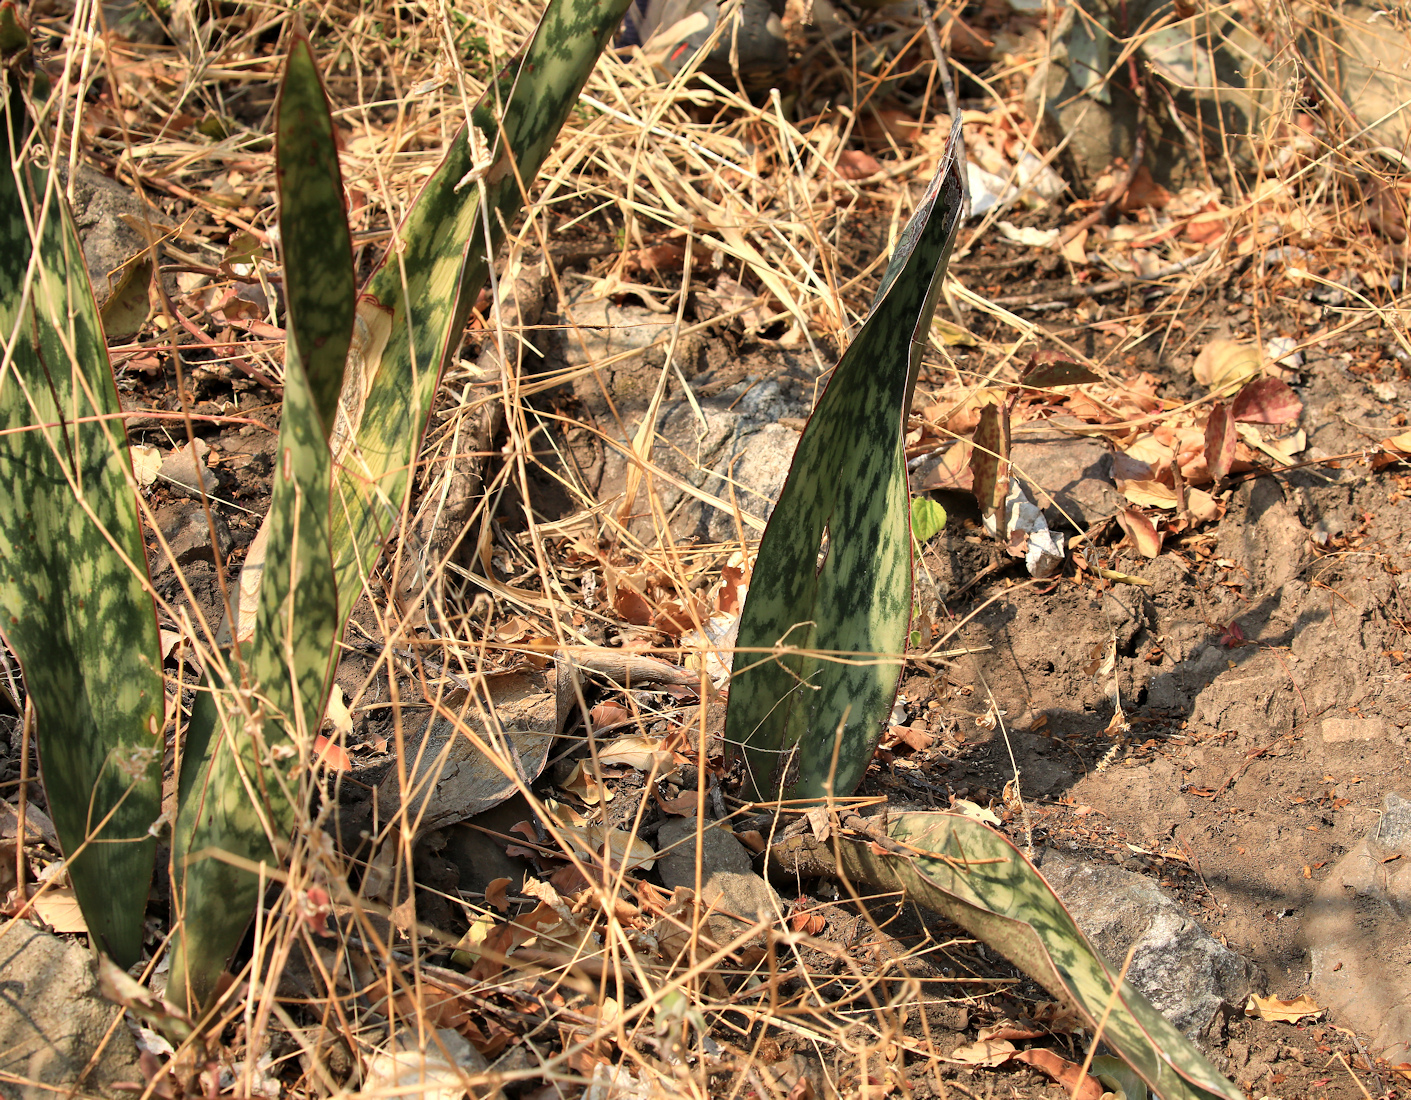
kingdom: Plantae
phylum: Tracheophyta
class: Liliopsida
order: Asparagales
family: Asparagaceae
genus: Dracaena
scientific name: Dracaena hyacinthoides
